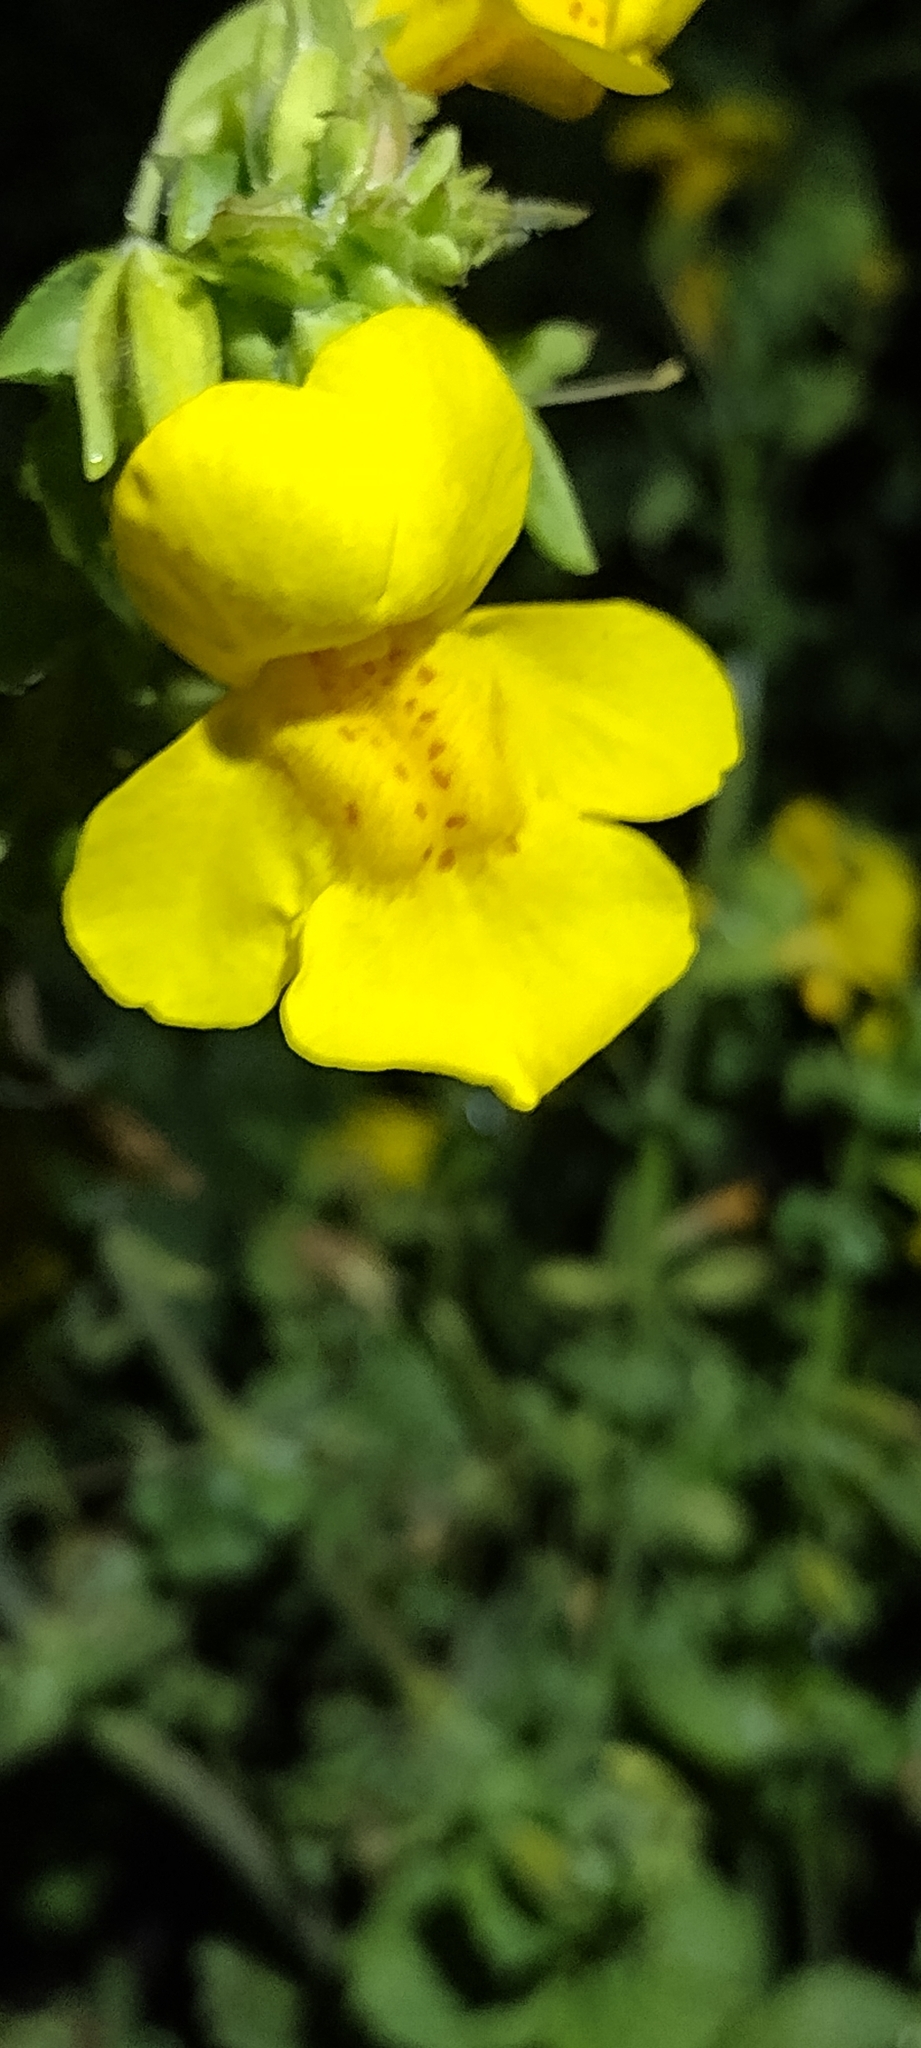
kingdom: Plantae
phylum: Tracheophyta
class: Magnoliopsida
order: Lamiales
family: Phrymaceae
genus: Erythranthe
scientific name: Erythranthe guttata
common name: Monkeyflower
